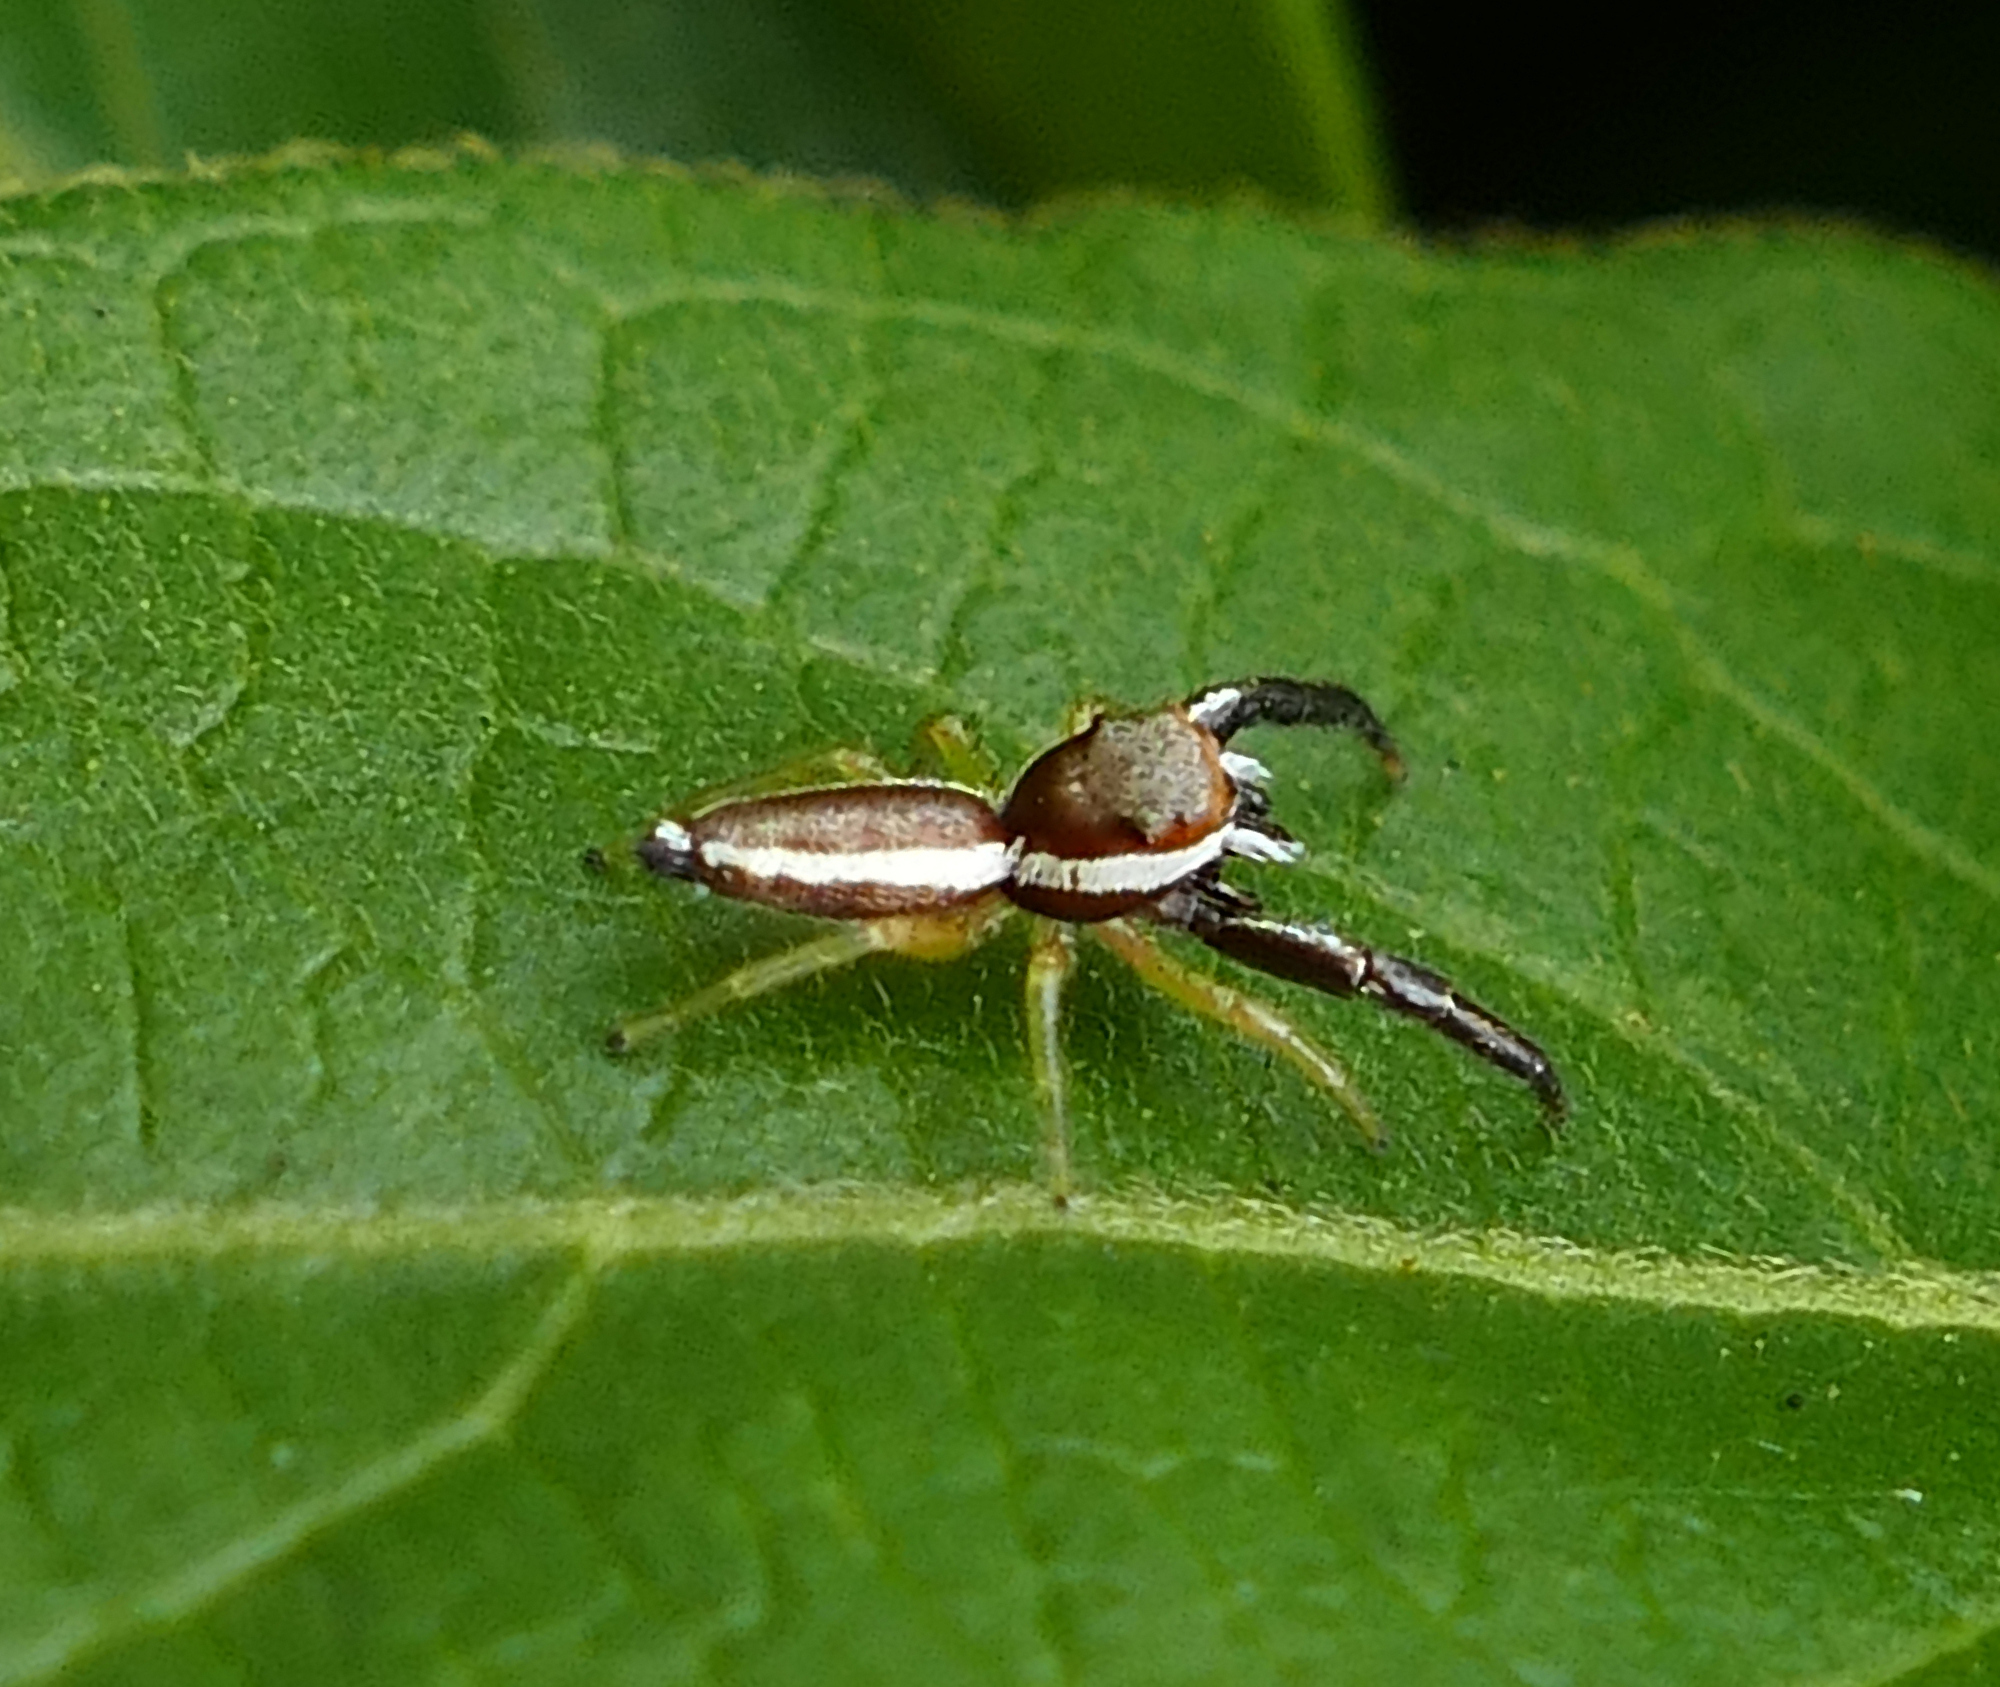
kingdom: Animalia
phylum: Arthropoda
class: Arachnida
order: Araneae
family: Salticidae
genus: Hentzia
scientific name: Hentzia palmarum
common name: Common hentz jumping spider
